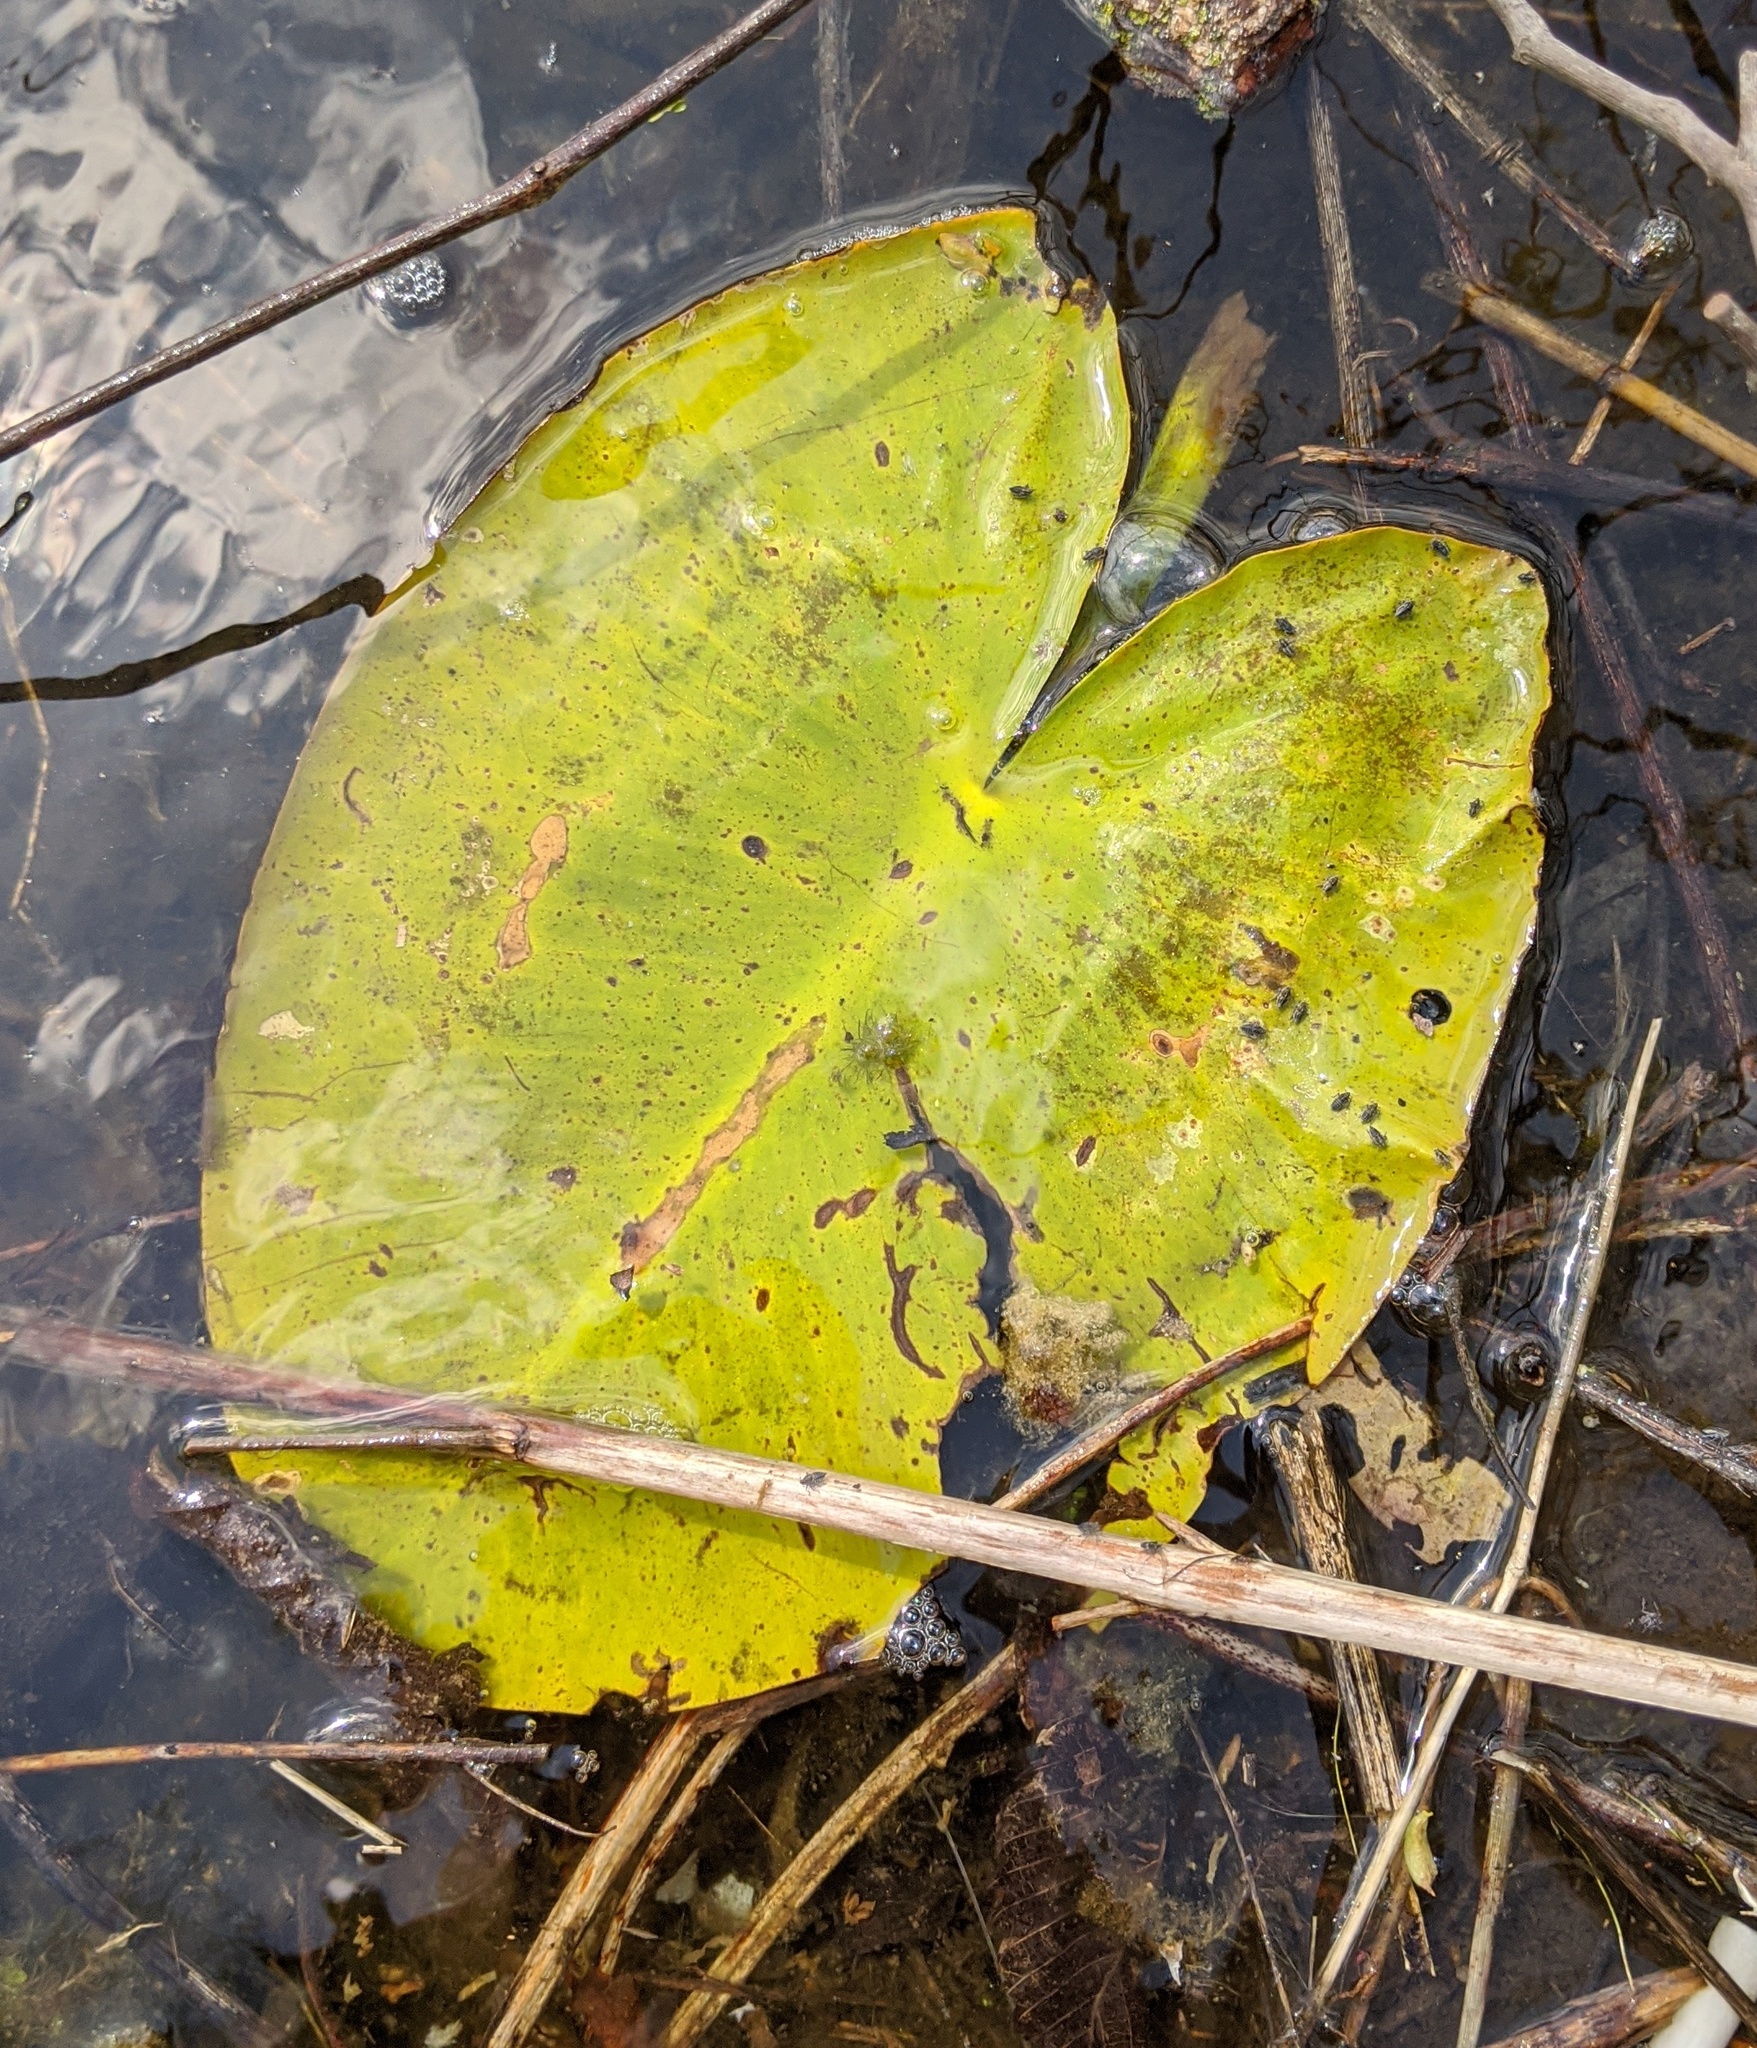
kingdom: Plantae
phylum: Tracheophyta
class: Magnoliopsida
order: Nymphaeales
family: Nymphaeaceae
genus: Nuphar
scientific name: Nuphar variegata
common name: Beaver-root
